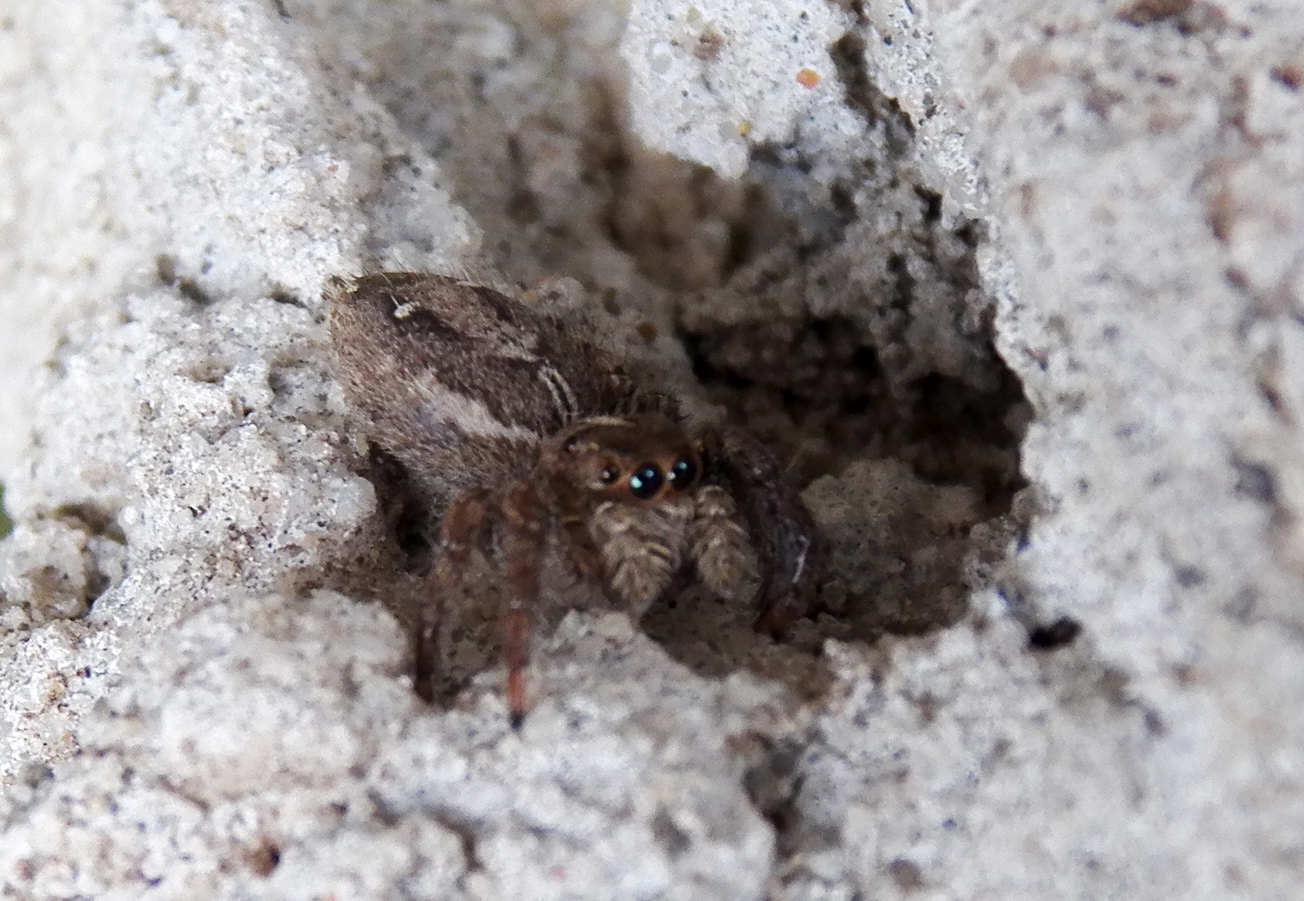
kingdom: Animalia
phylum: Arthropoda
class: Arachnida
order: Araneae
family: Salticidae
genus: Plexippus
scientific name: Plexippus paykulli
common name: Pantropical jumper
